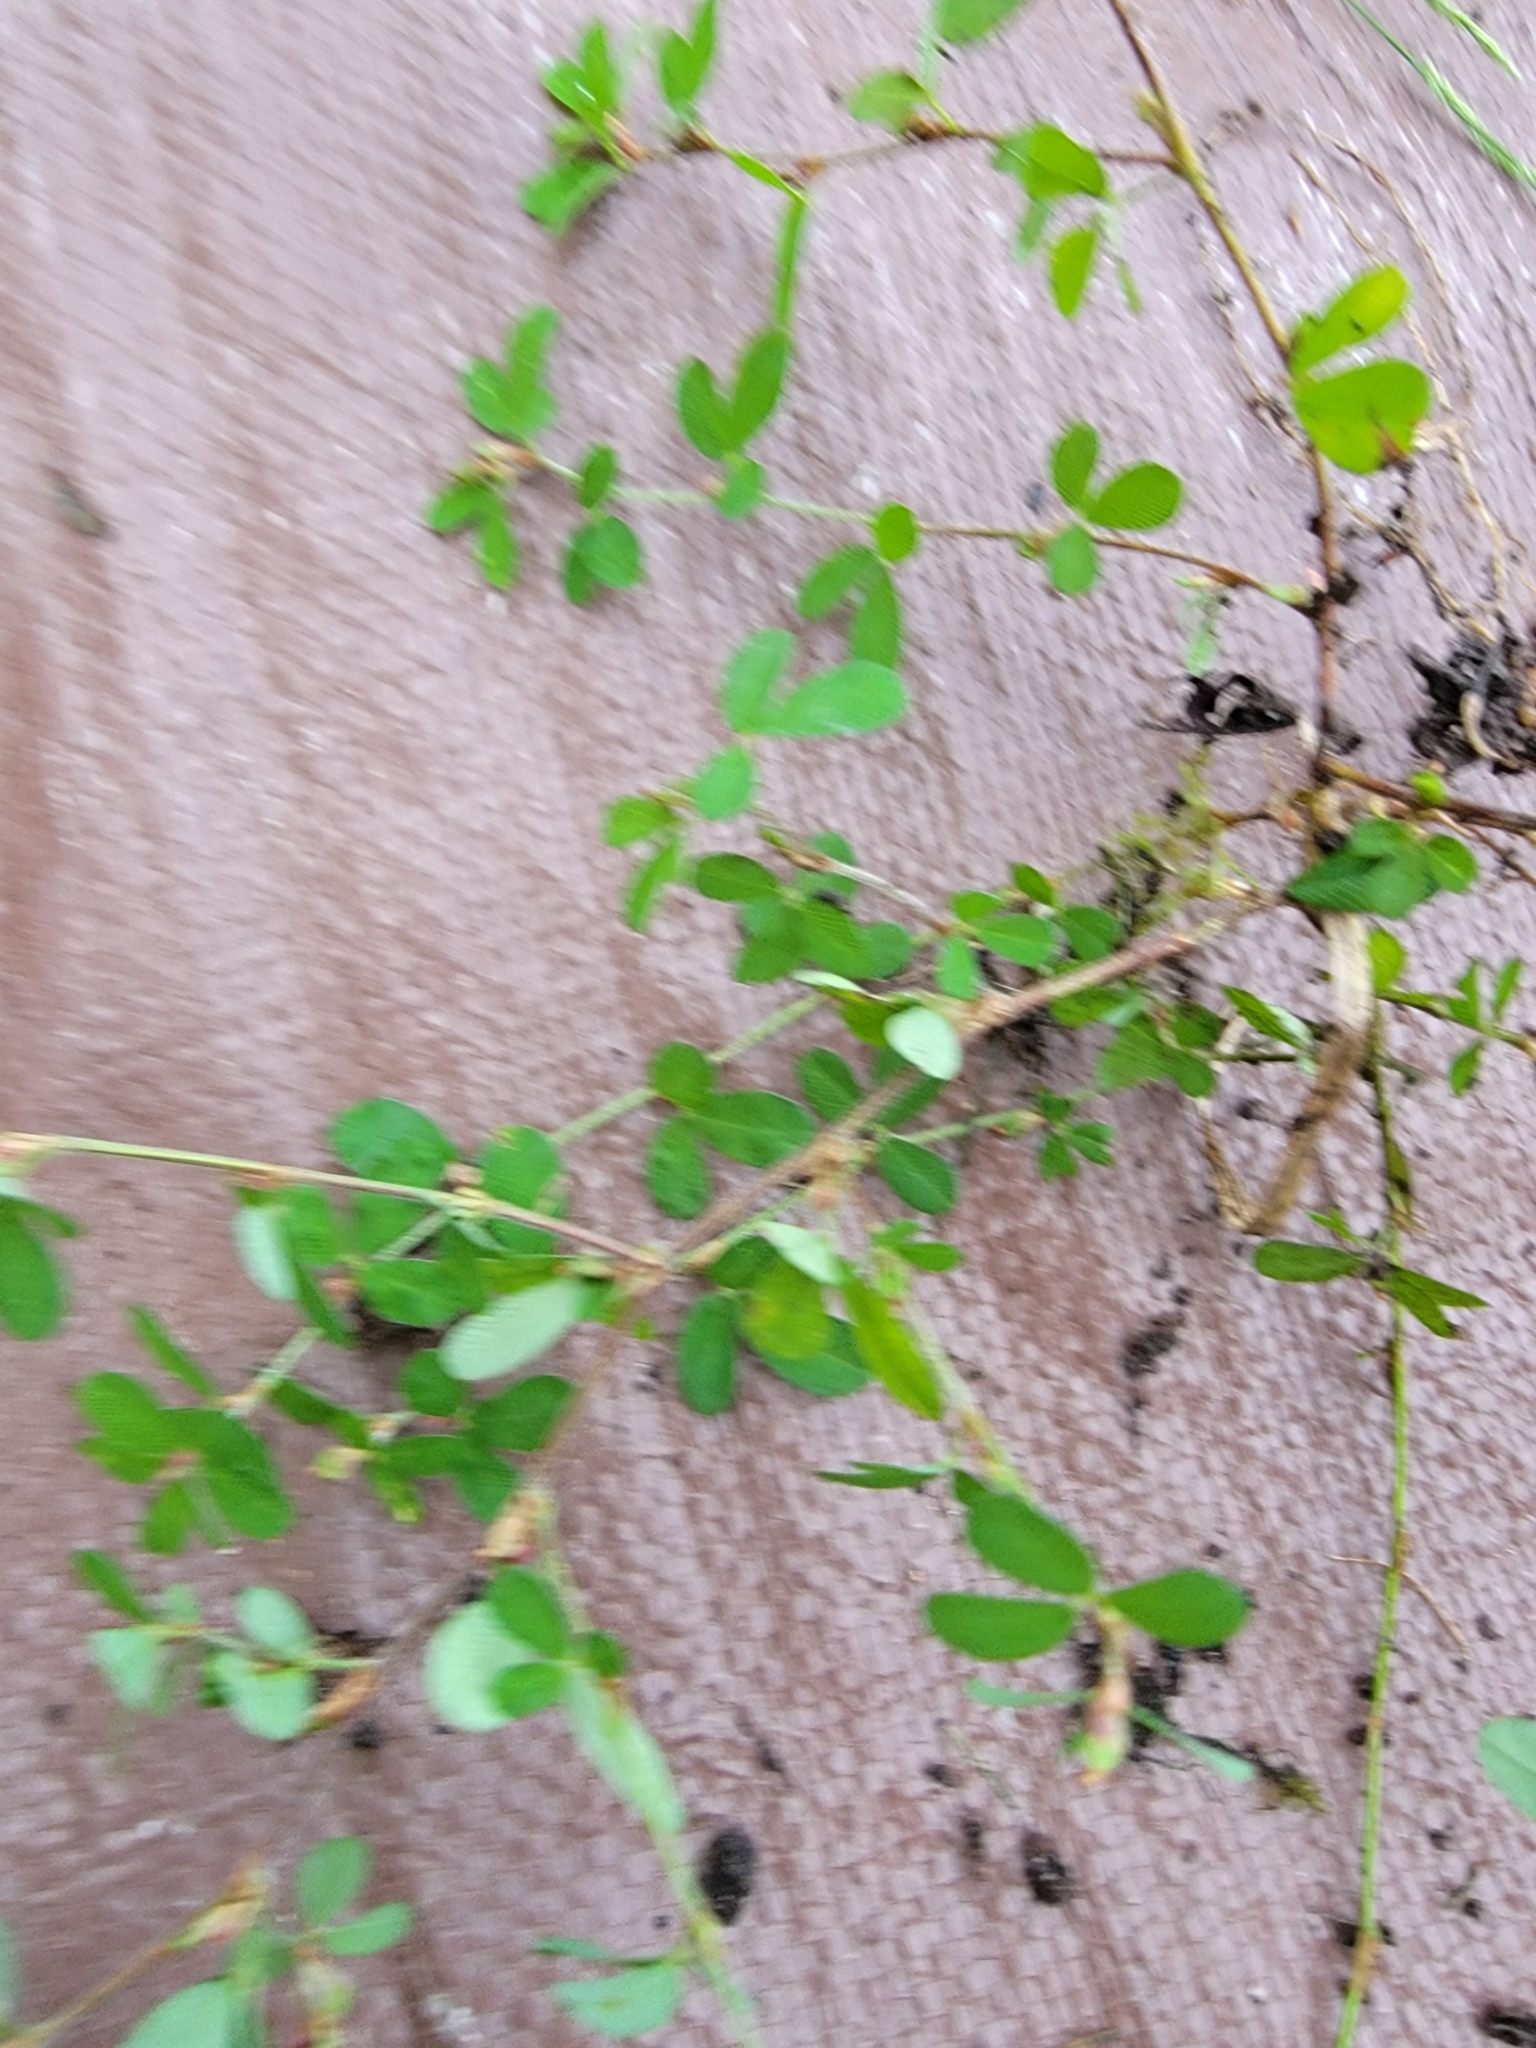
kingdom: Plantae
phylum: Tracheophyta
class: Magnoliopsida
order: Fabales
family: Fabaceae
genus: Kummerowia
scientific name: Kummerowia striata
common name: Japanese clover
